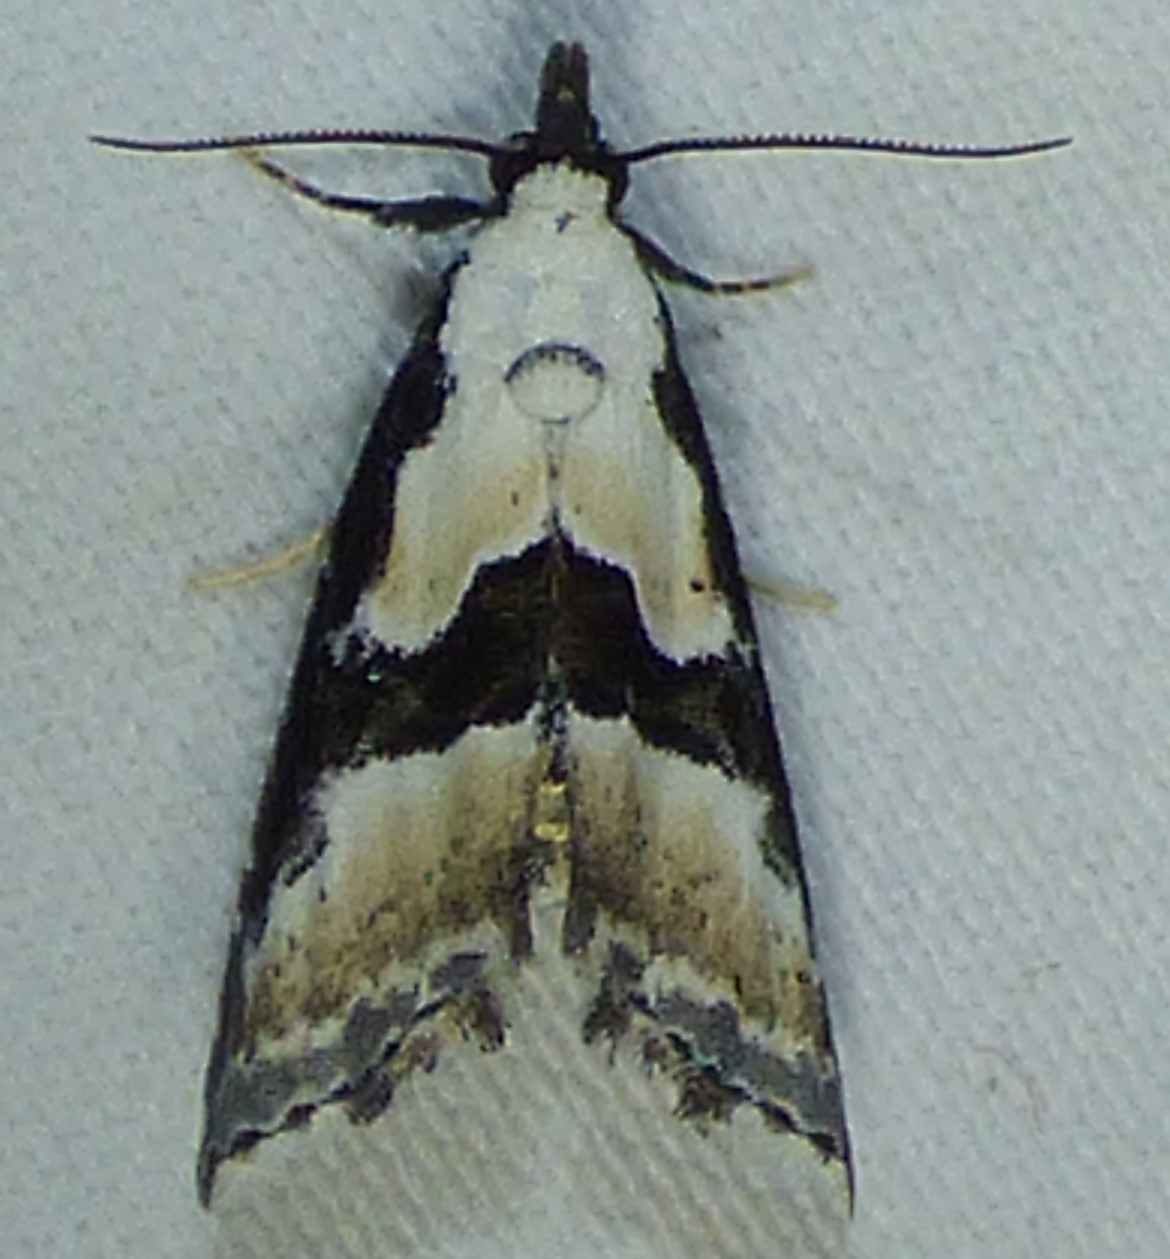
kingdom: Animalia
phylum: Arthropoda
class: Insecta
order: Lepidoptera
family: Noctuidae
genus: Nigetia
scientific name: Nigetia formosalis
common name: Thin-winged owlet
